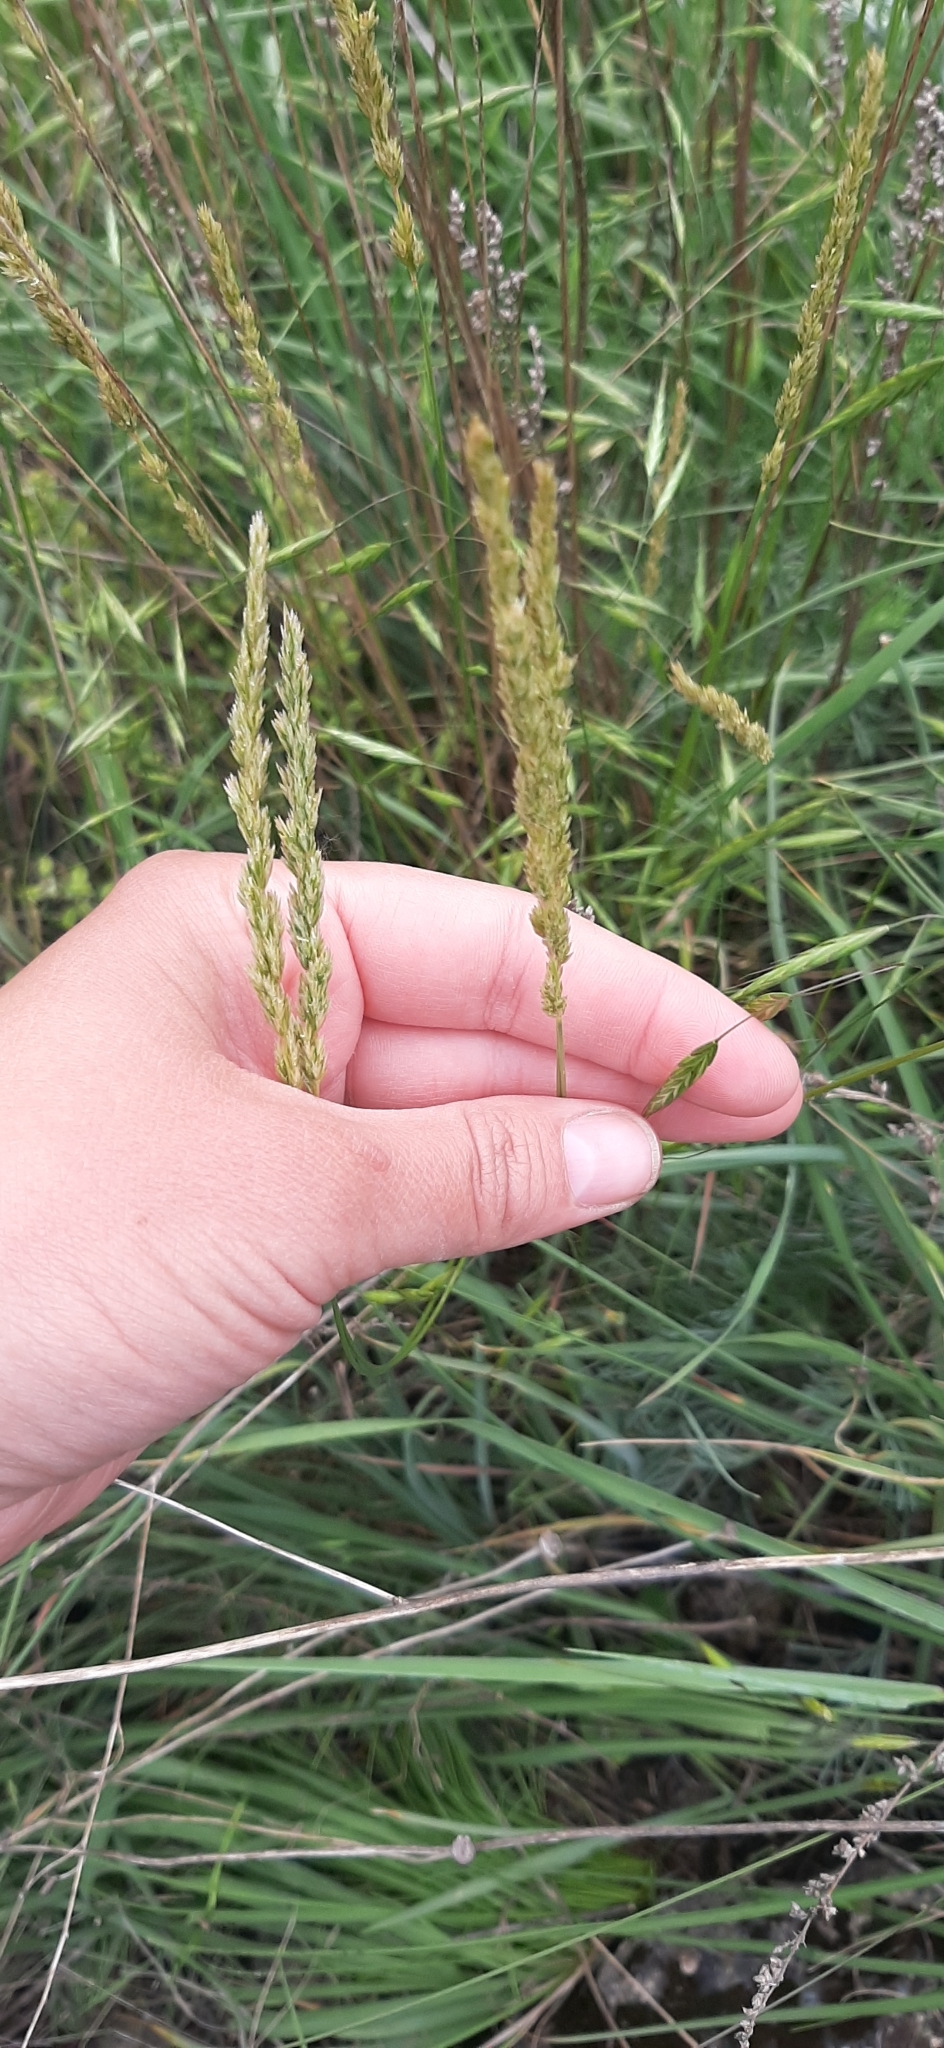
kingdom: Plantae
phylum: Tracheophyta
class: Liliopsida
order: Poales
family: Poaceae
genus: Koeleria
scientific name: Koeleria macrantha
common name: Crested hair-grass
